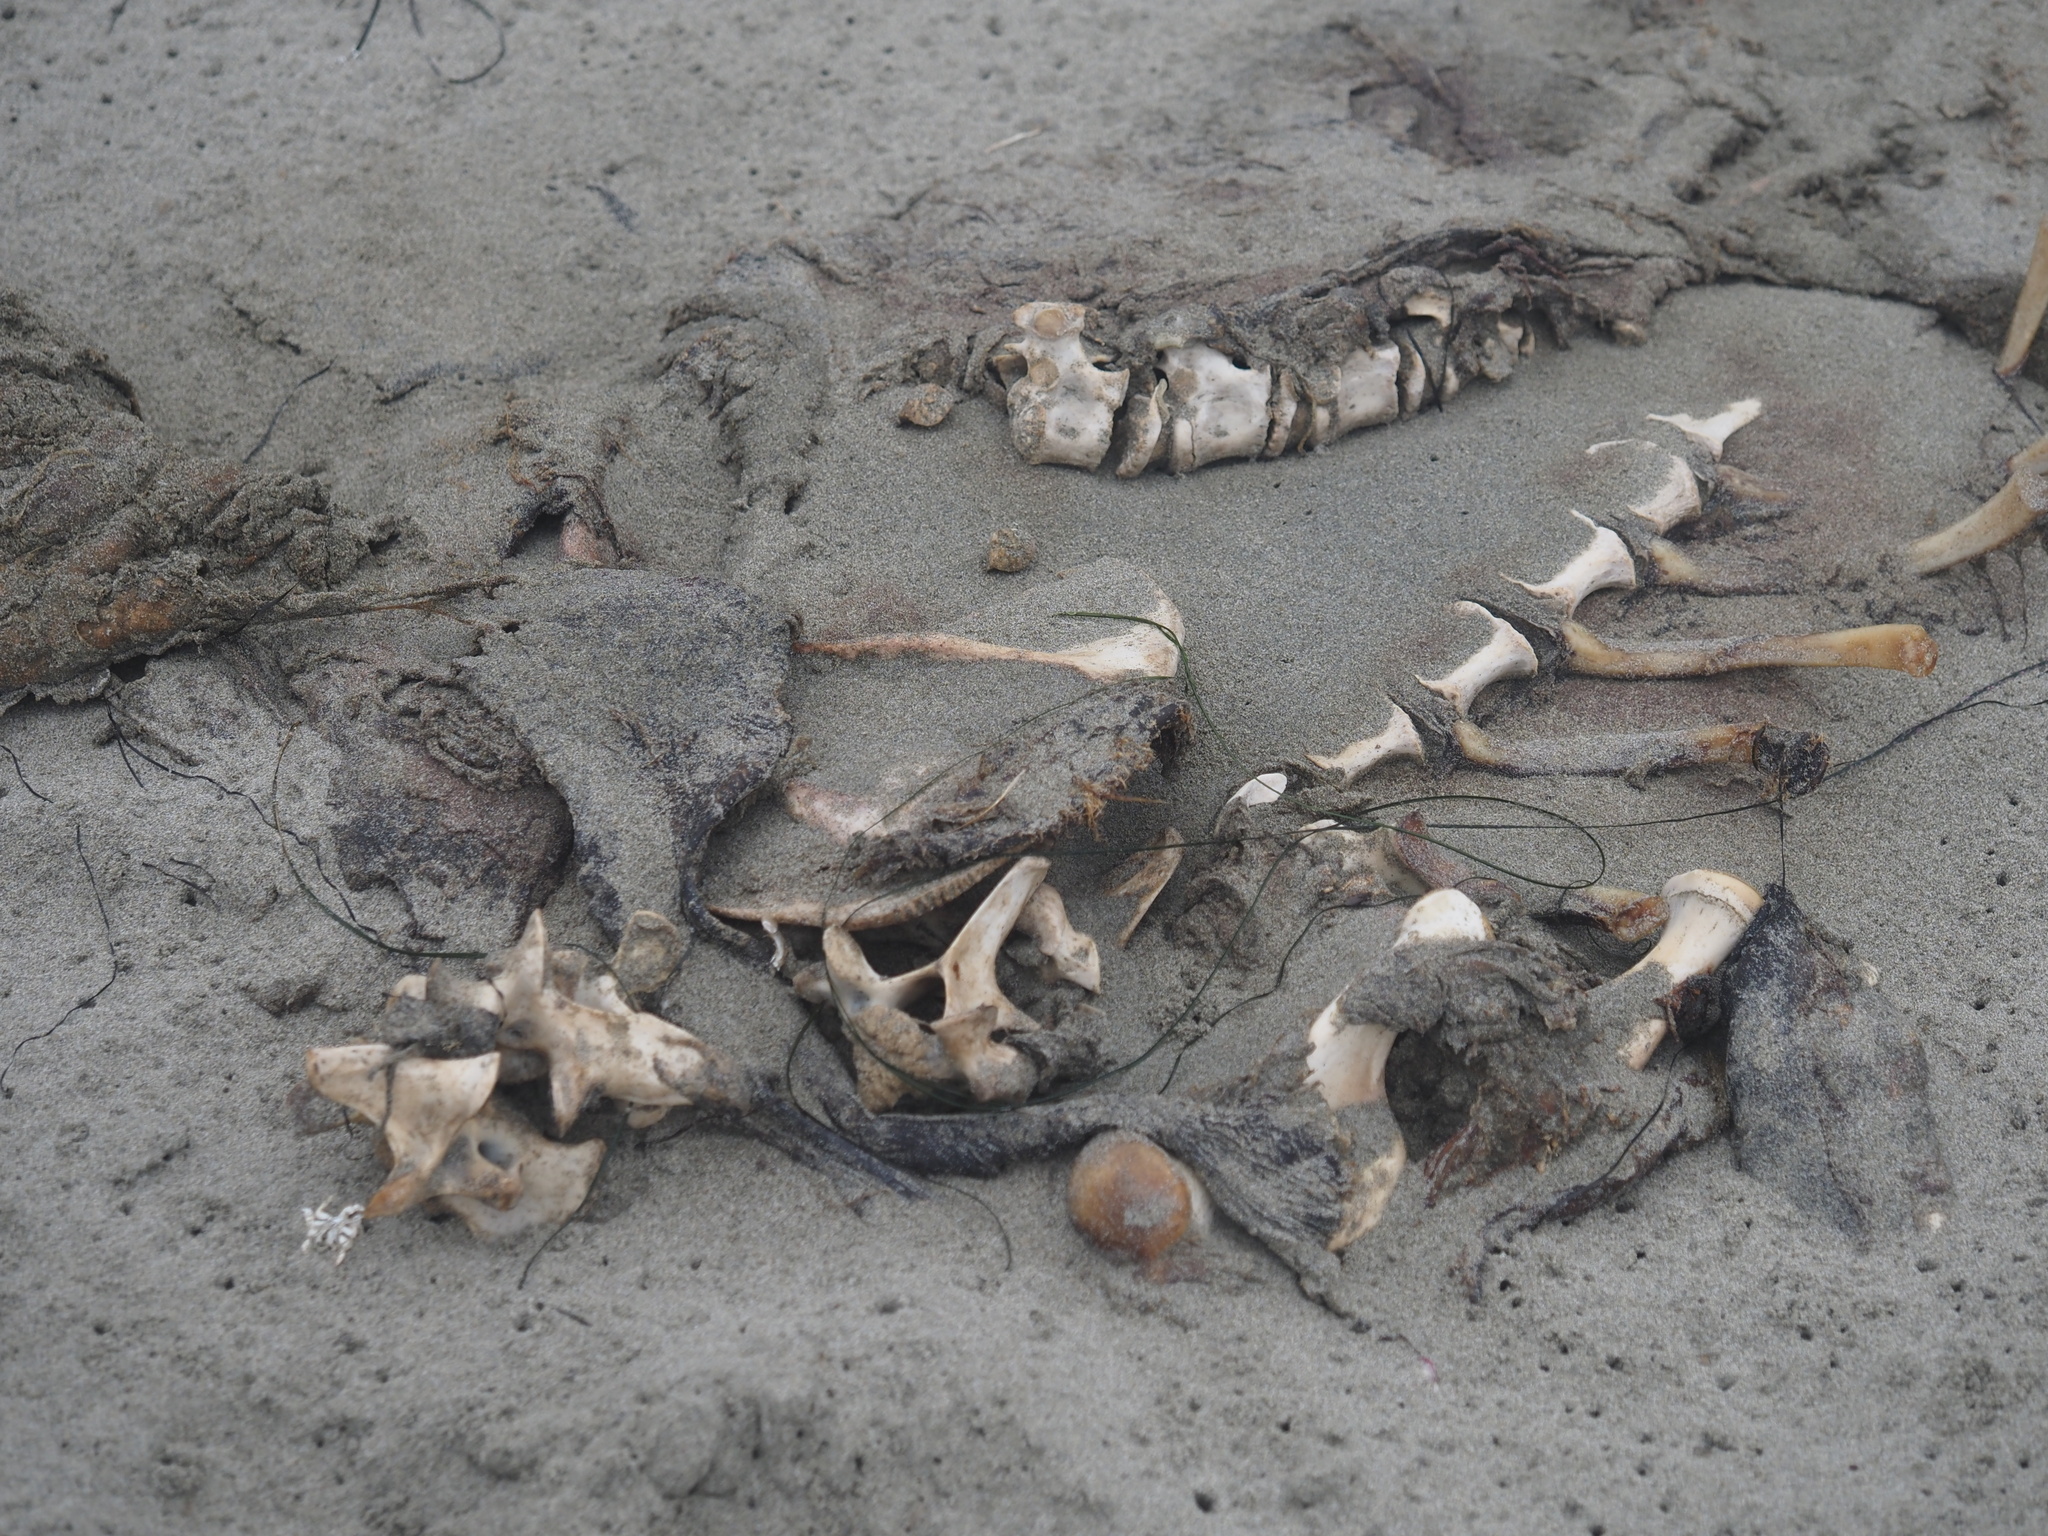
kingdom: Animalia
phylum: Chordata
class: Mammalia
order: Carnivora
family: Otariidae
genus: Zalophus
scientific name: Zalophus californianus
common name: California sea lion
